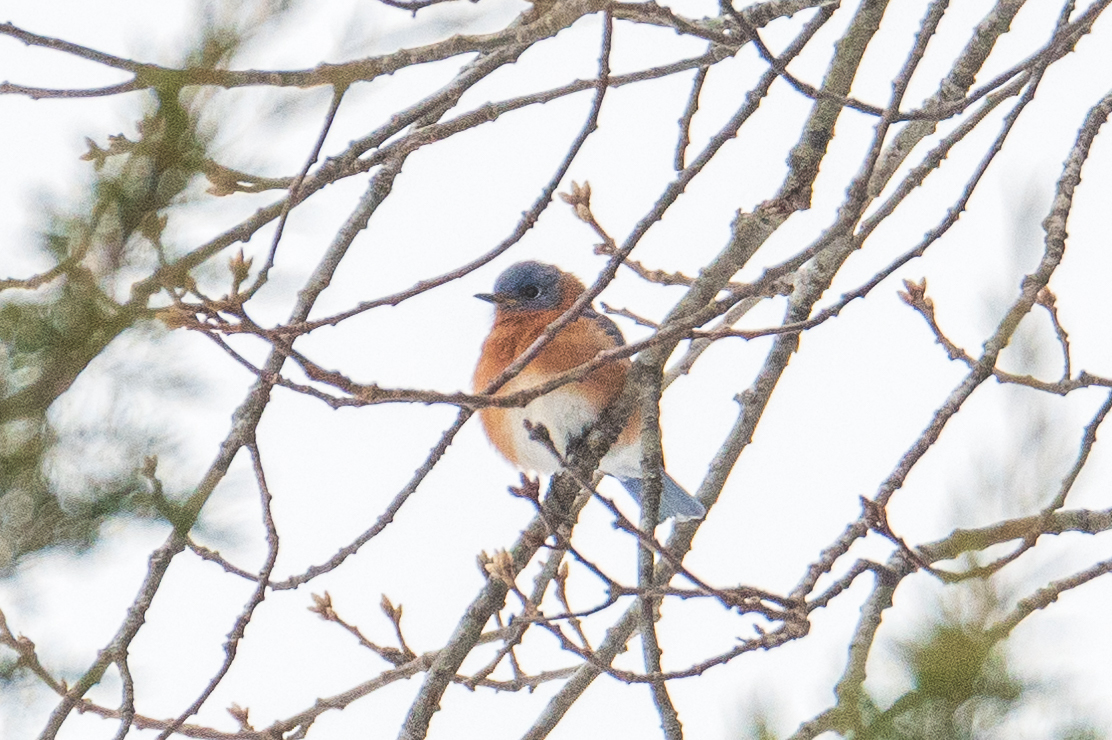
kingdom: Animalia
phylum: Chordata
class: Aves
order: Passeriformes
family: Turdidae
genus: Sialia
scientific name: Sialia sialis
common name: Eastern bluebird
